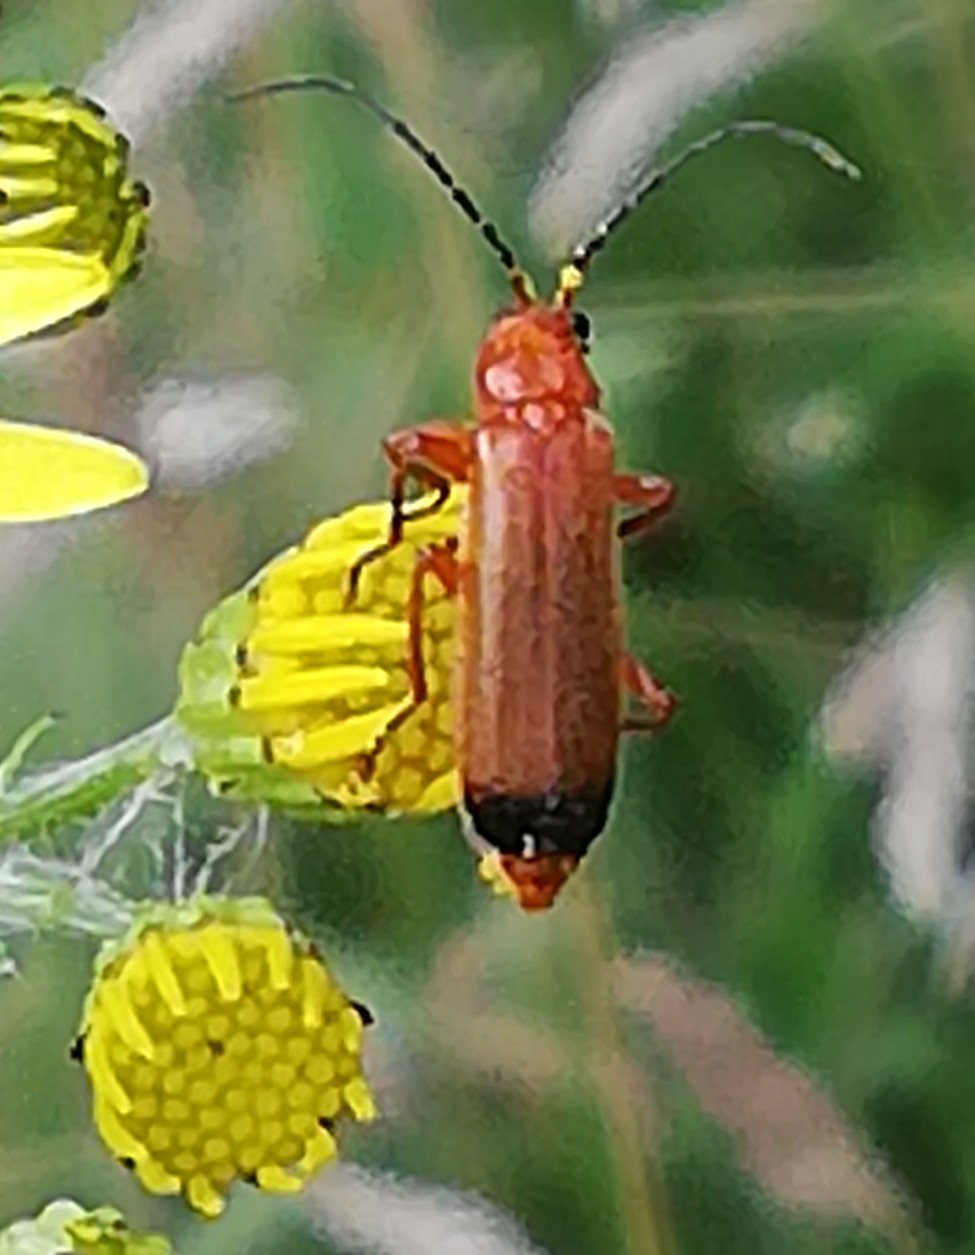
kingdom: Animalia
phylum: Arthropoda
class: Insecta
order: Coleoptera
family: Cantharidae
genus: Rhagonycha
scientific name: Rhagonycha fulva
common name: Common red soldier beetle
